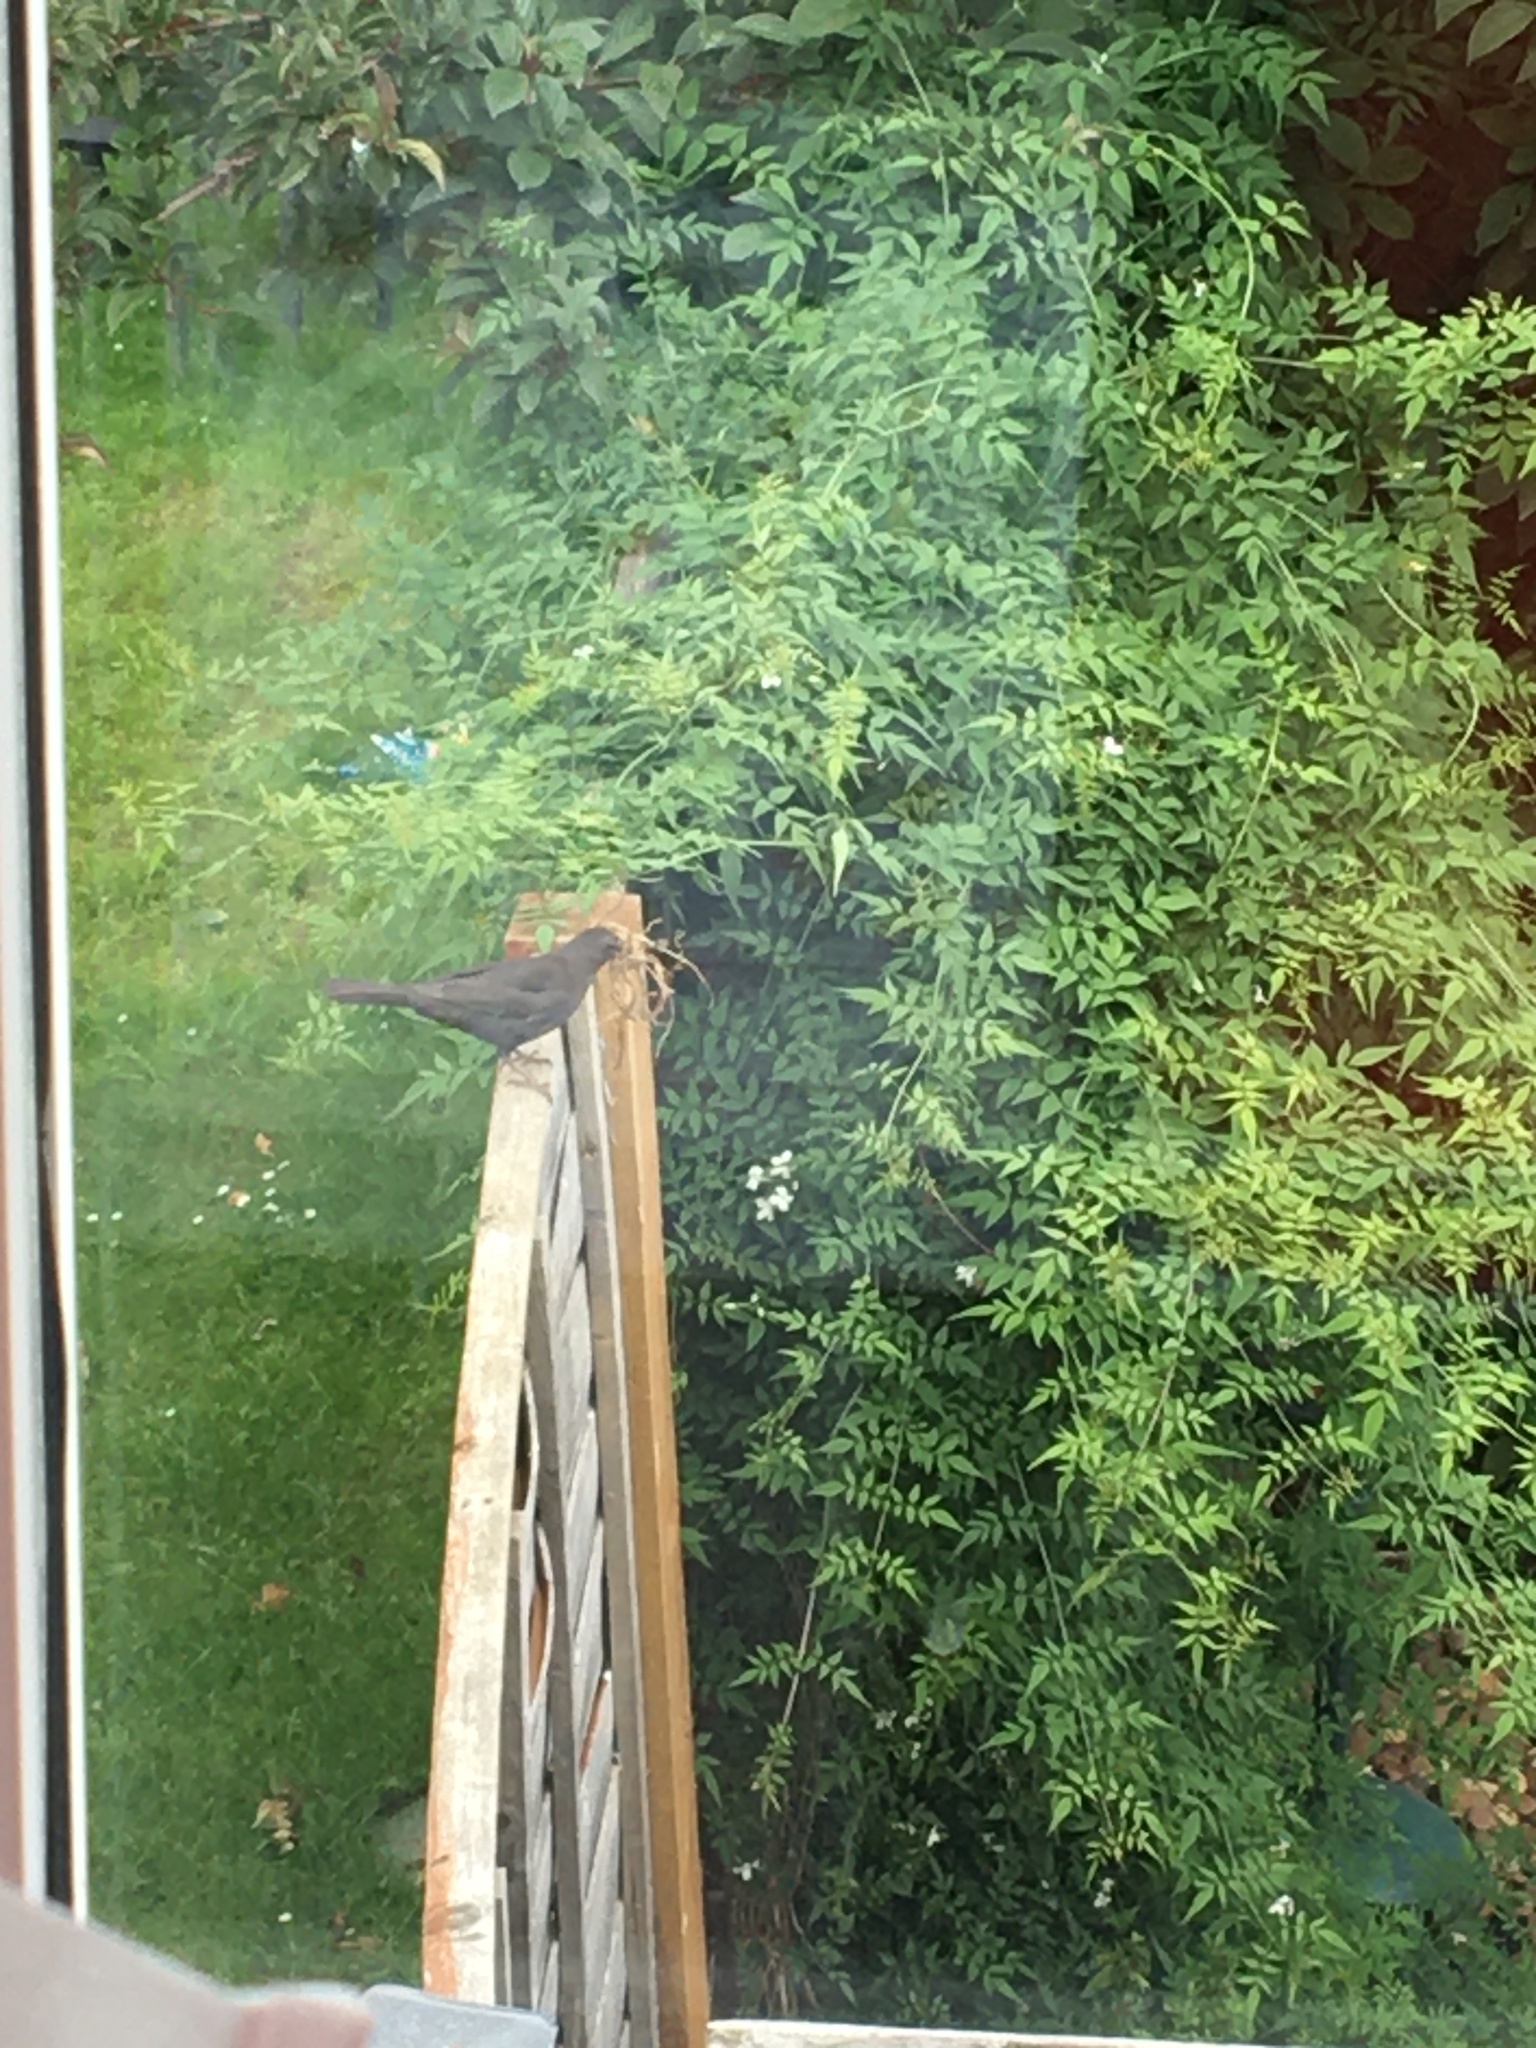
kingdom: Animalia
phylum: Chordata
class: Aves
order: Passeriformes
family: Turdidae
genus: Turdus
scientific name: Turdus merula
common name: Common blackbird
